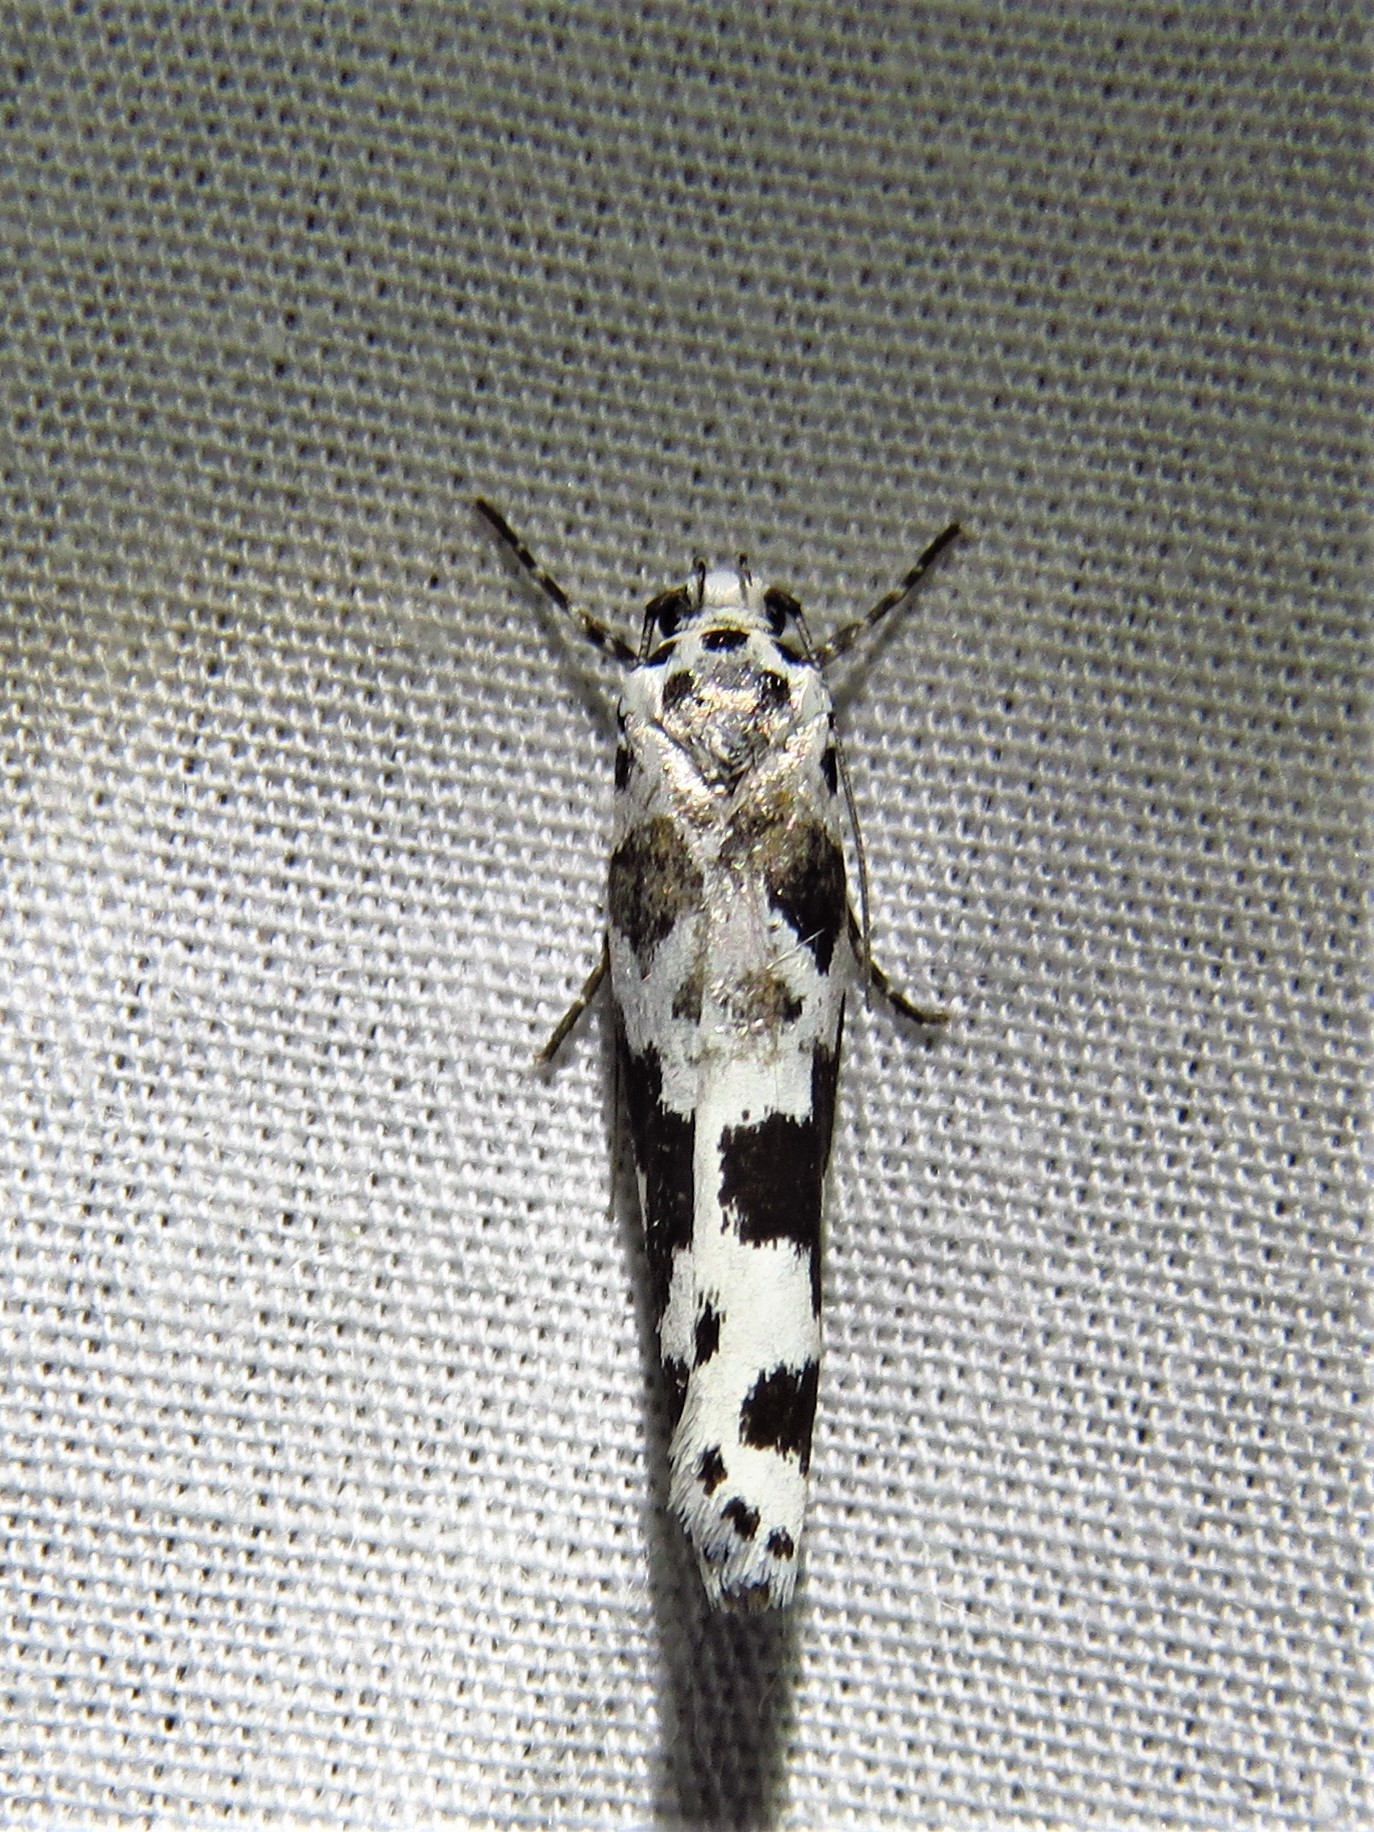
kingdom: Animalia
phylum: Arthropoda
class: Insecta
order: Lepidoptera
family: Ethmiidae
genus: Ethmia
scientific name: Ethmia sabiella
